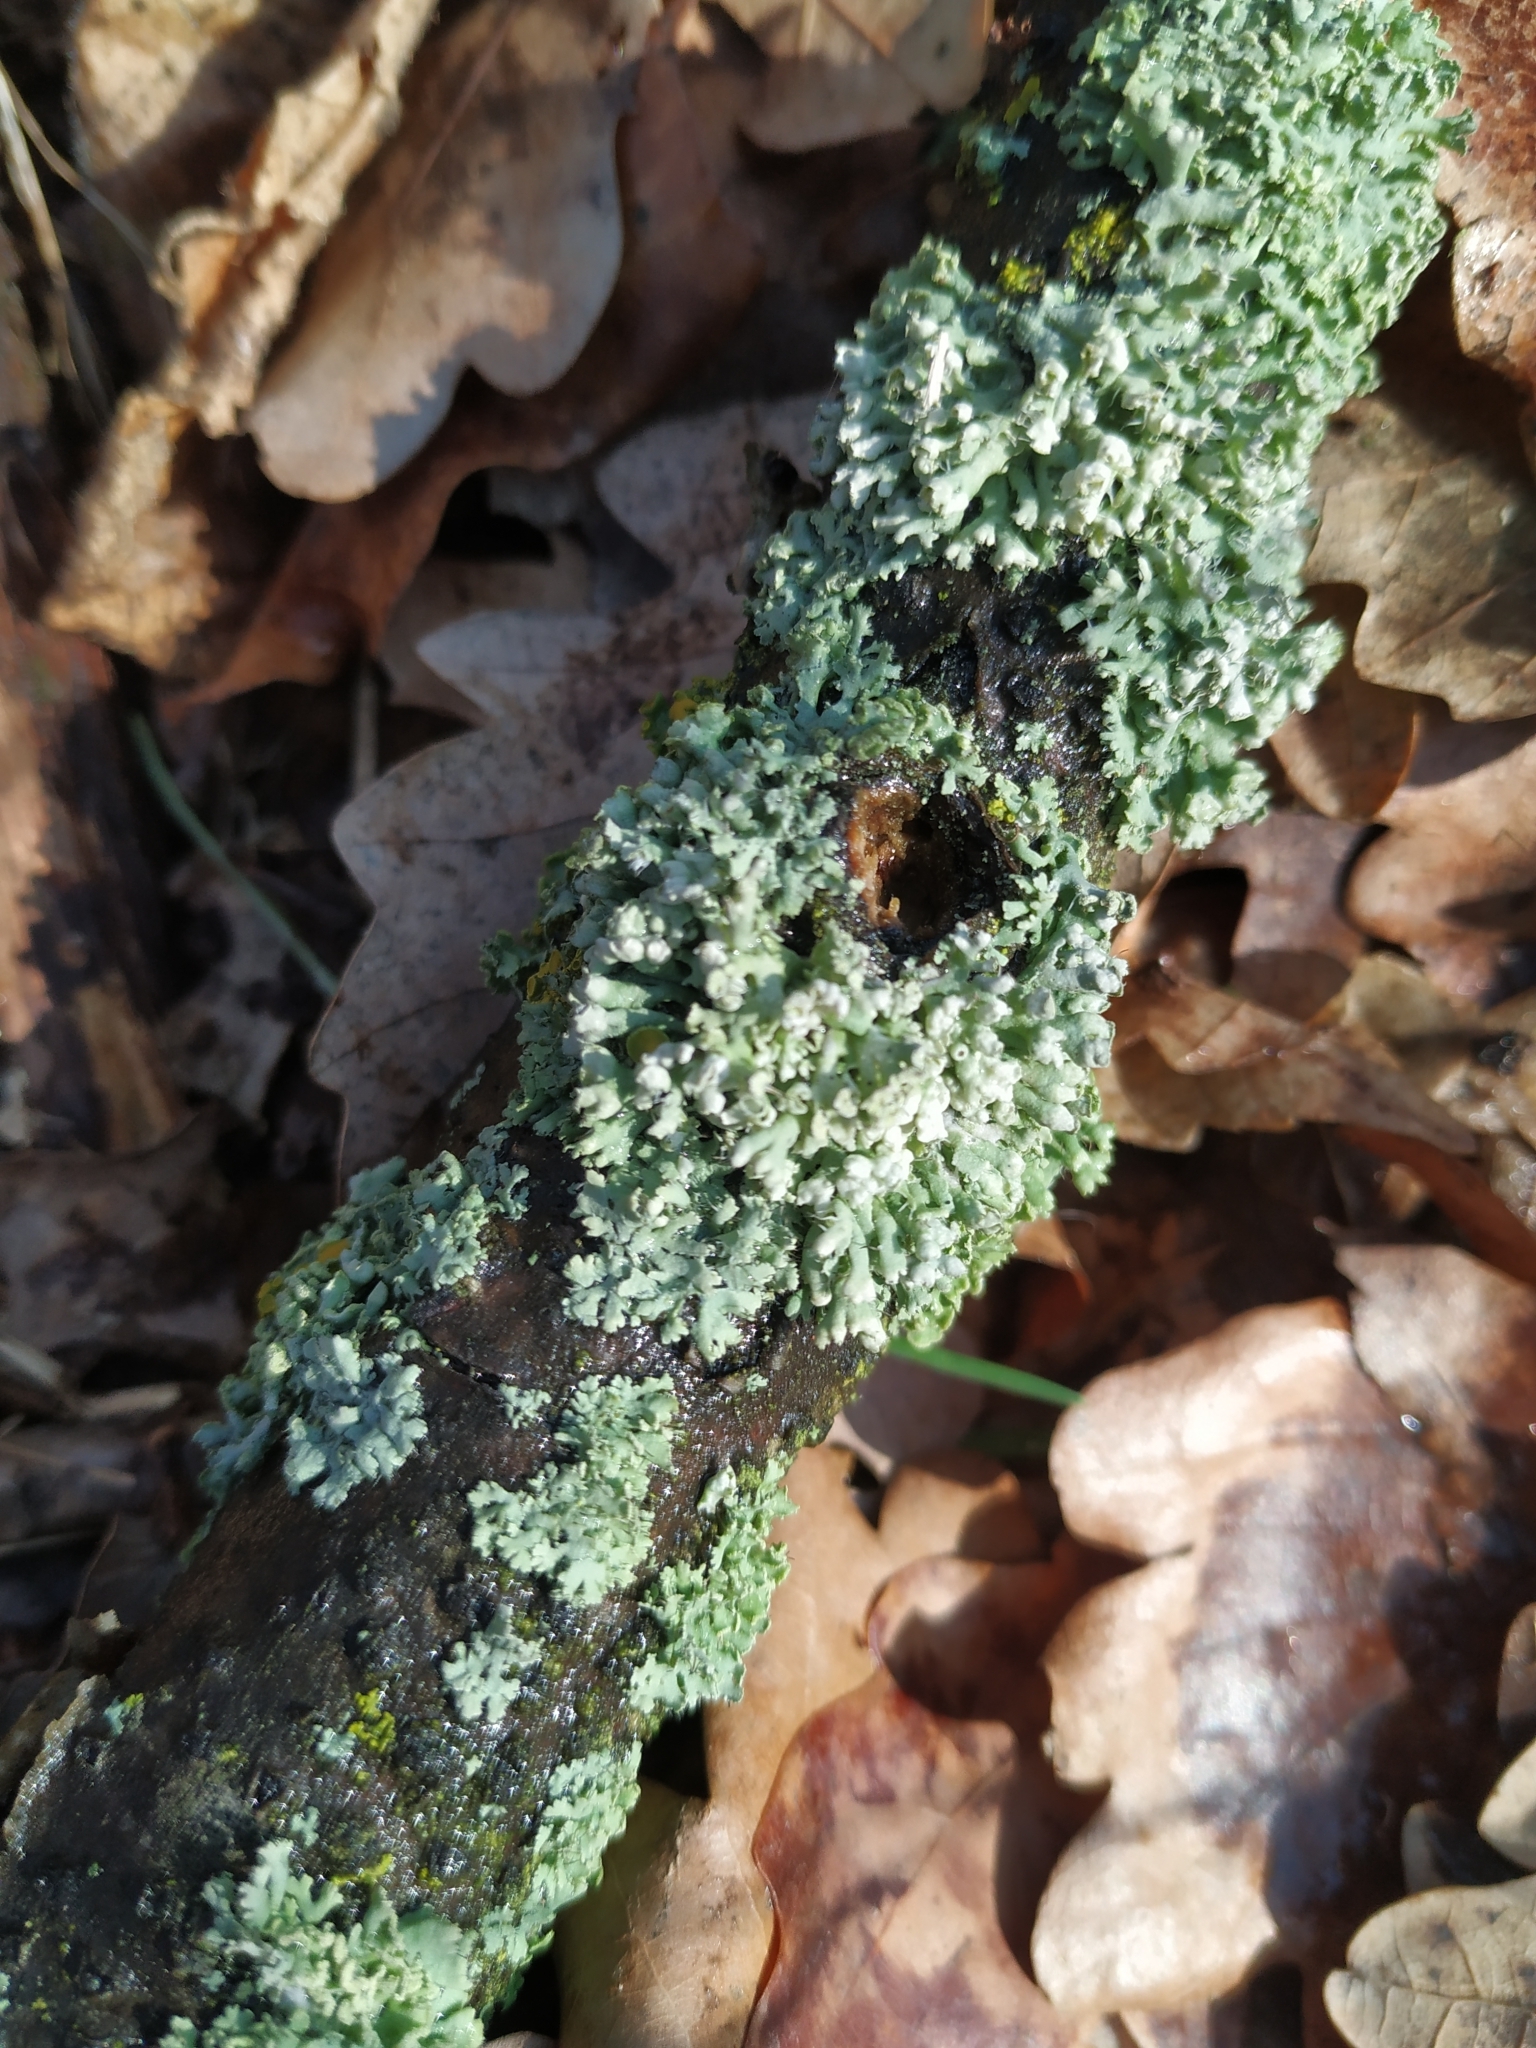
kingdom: Fungi
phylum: Ascomycota
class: Lecanoromycetes
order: Caliciales
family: Physciaceae
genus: Physcia
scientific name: Physcia adscendens
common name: Hooded rosette lichen
